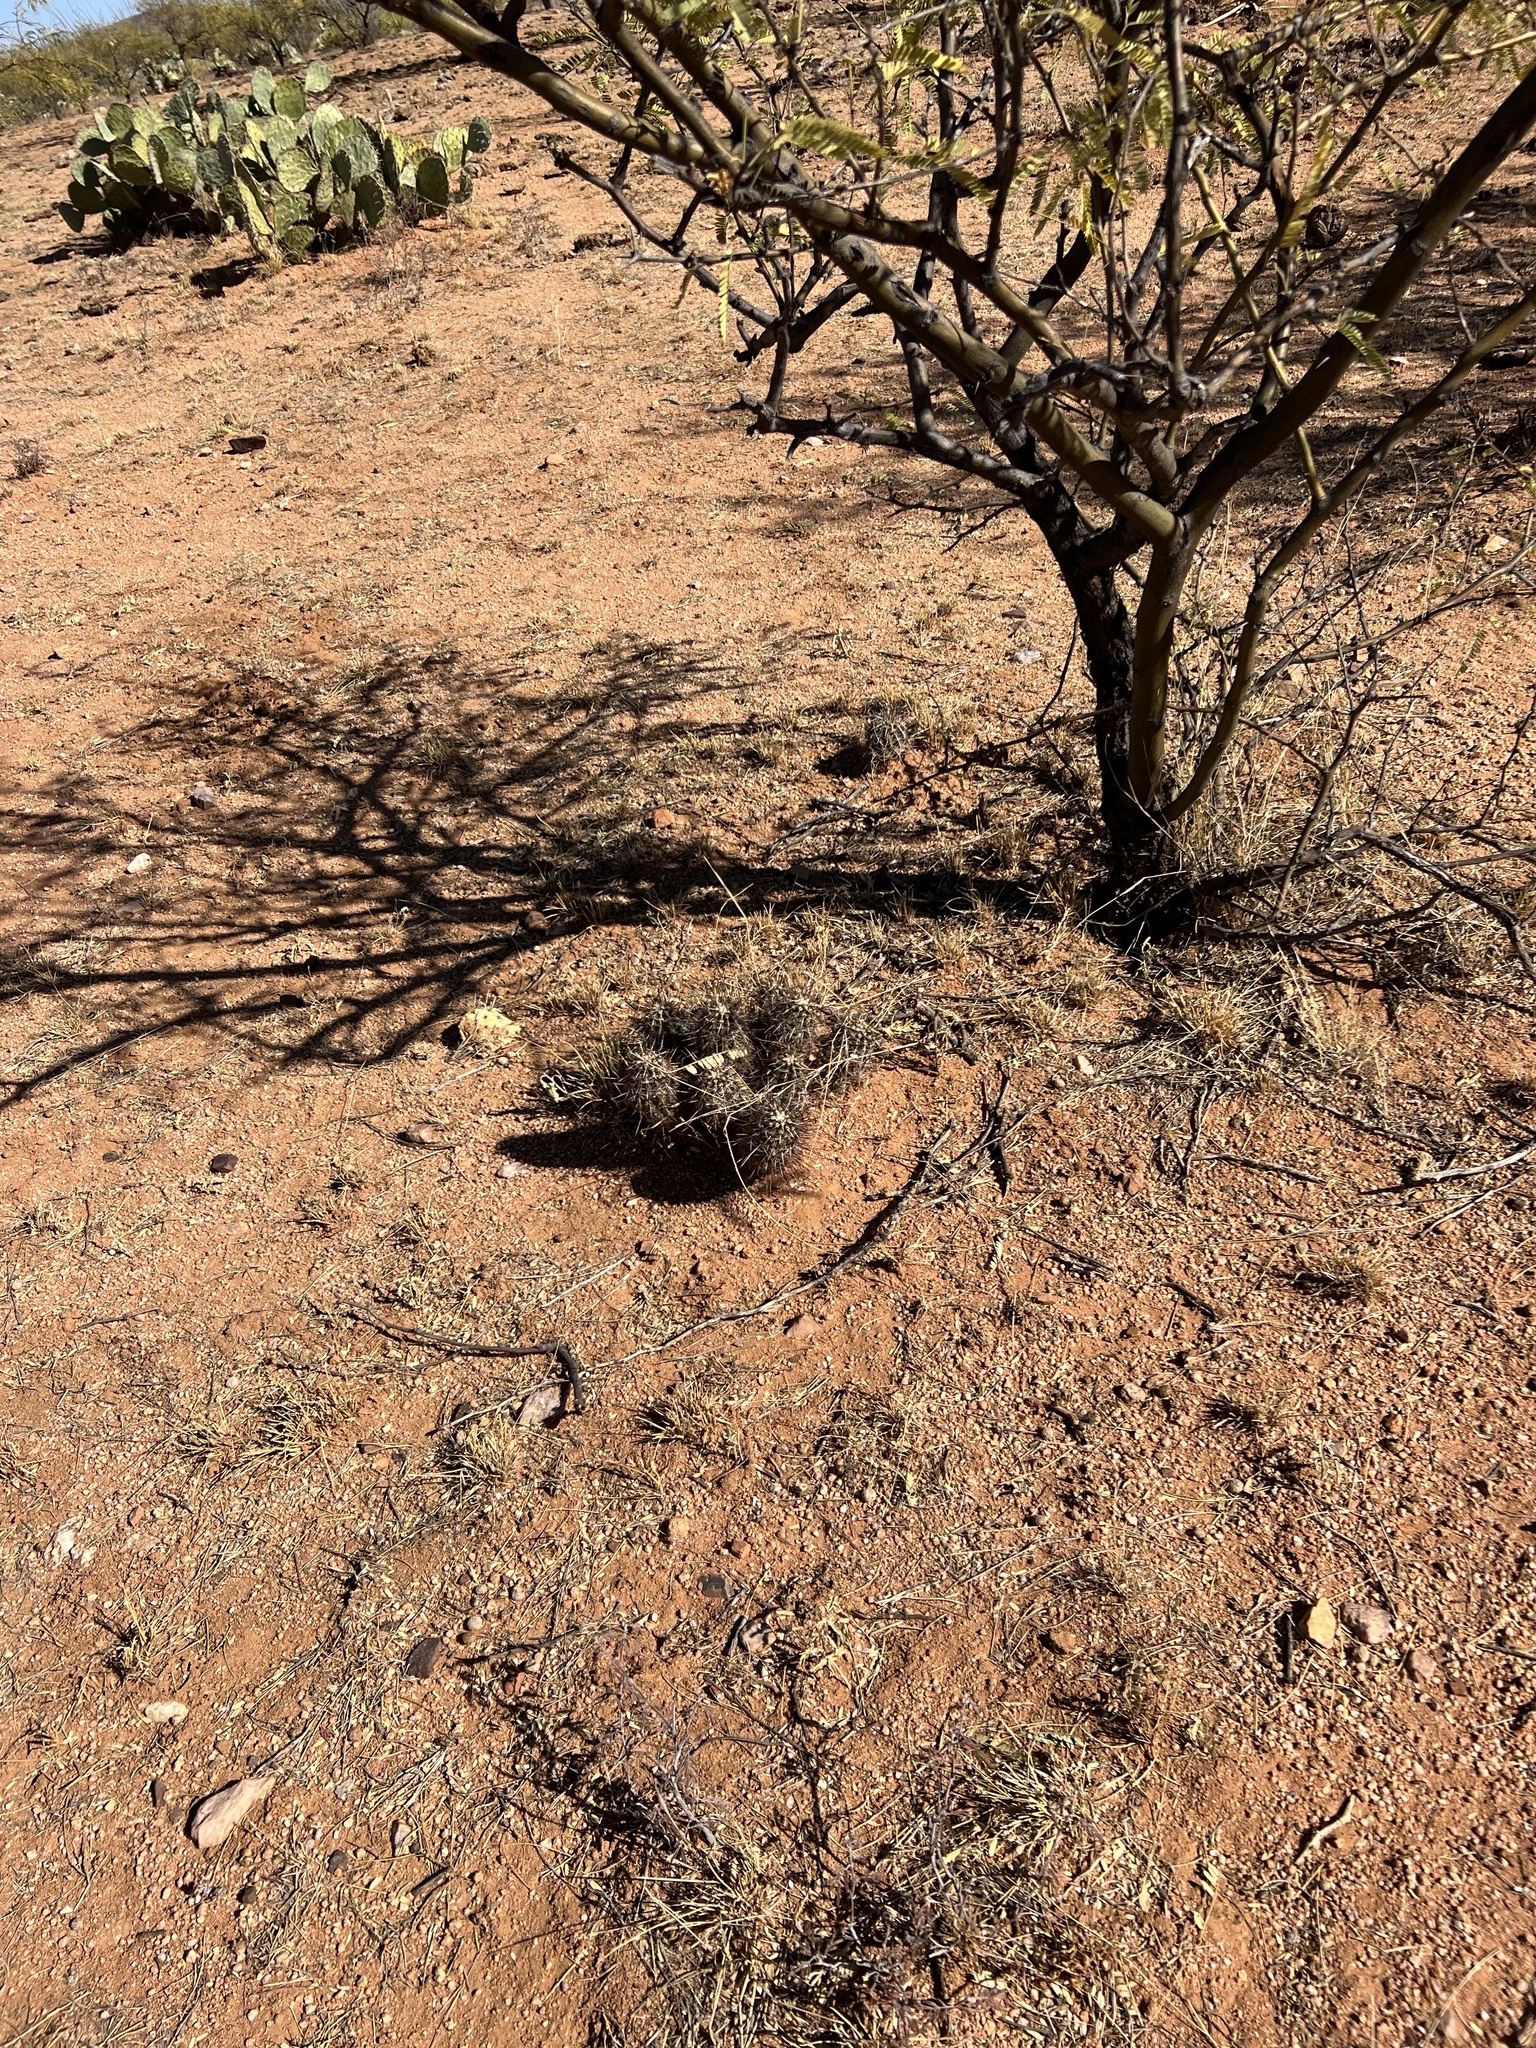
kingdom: Plantae
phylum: Tracheophyta
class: Magnoliopsida
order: Caryophyllales
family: Cactaceae
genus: Echinocereus
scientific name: Echinocereus fasciculatus
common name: Bundle hedgehog
